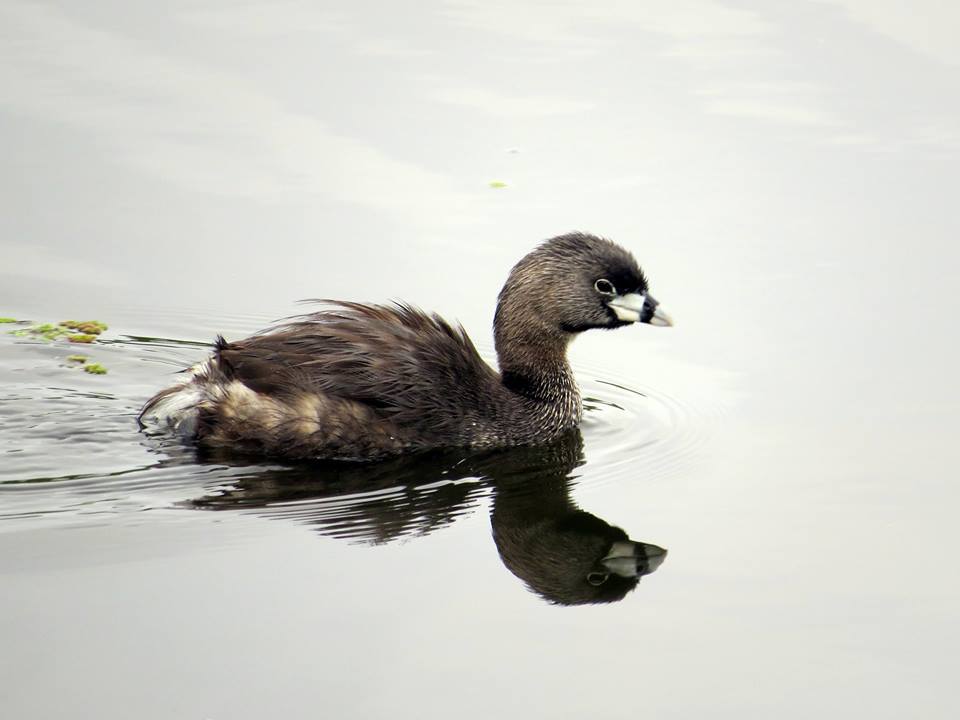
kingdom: Animalia
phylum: Chordata
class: Aves
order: Podicipediformes
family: Podicipedidae
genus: Podilymbus
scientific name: Podilymbus podiceps
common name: Pied-billed grebe
